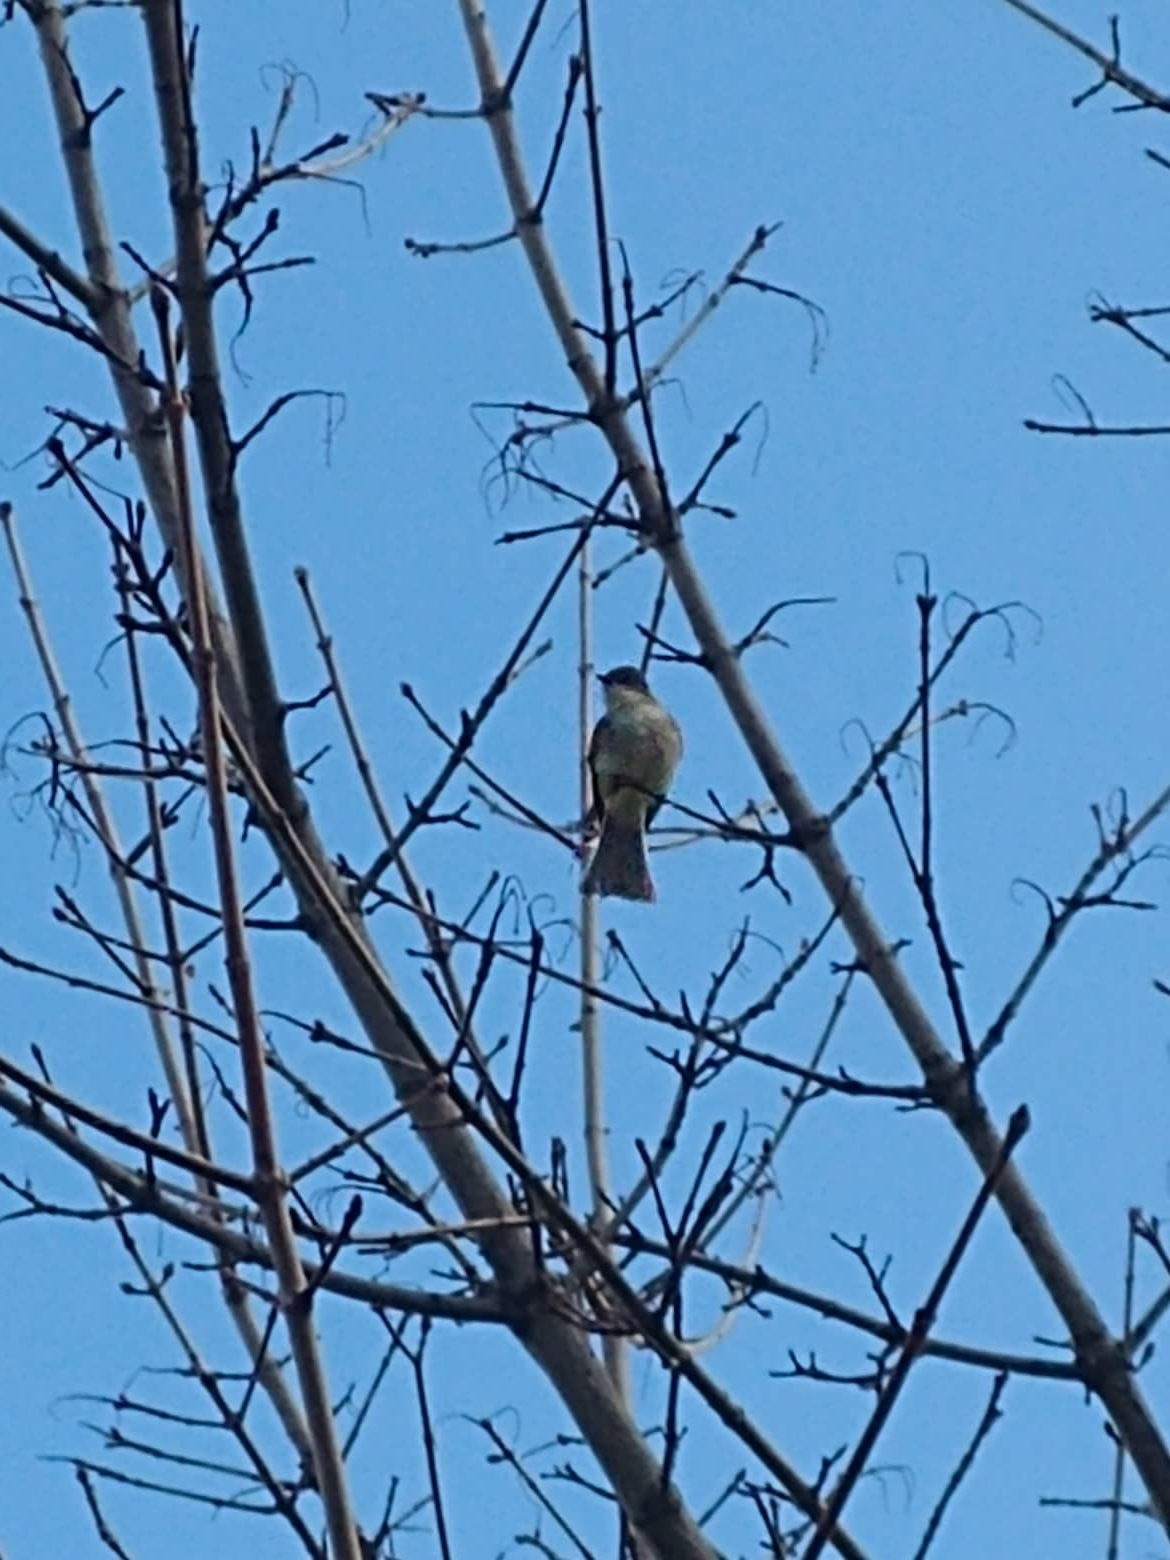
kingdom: Animalia
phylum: Chordata
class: Aves
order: Passeriformes
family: Tyrannidae
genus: Sayornis
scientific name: Sayornis phoebe
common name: Eastern phoebe
